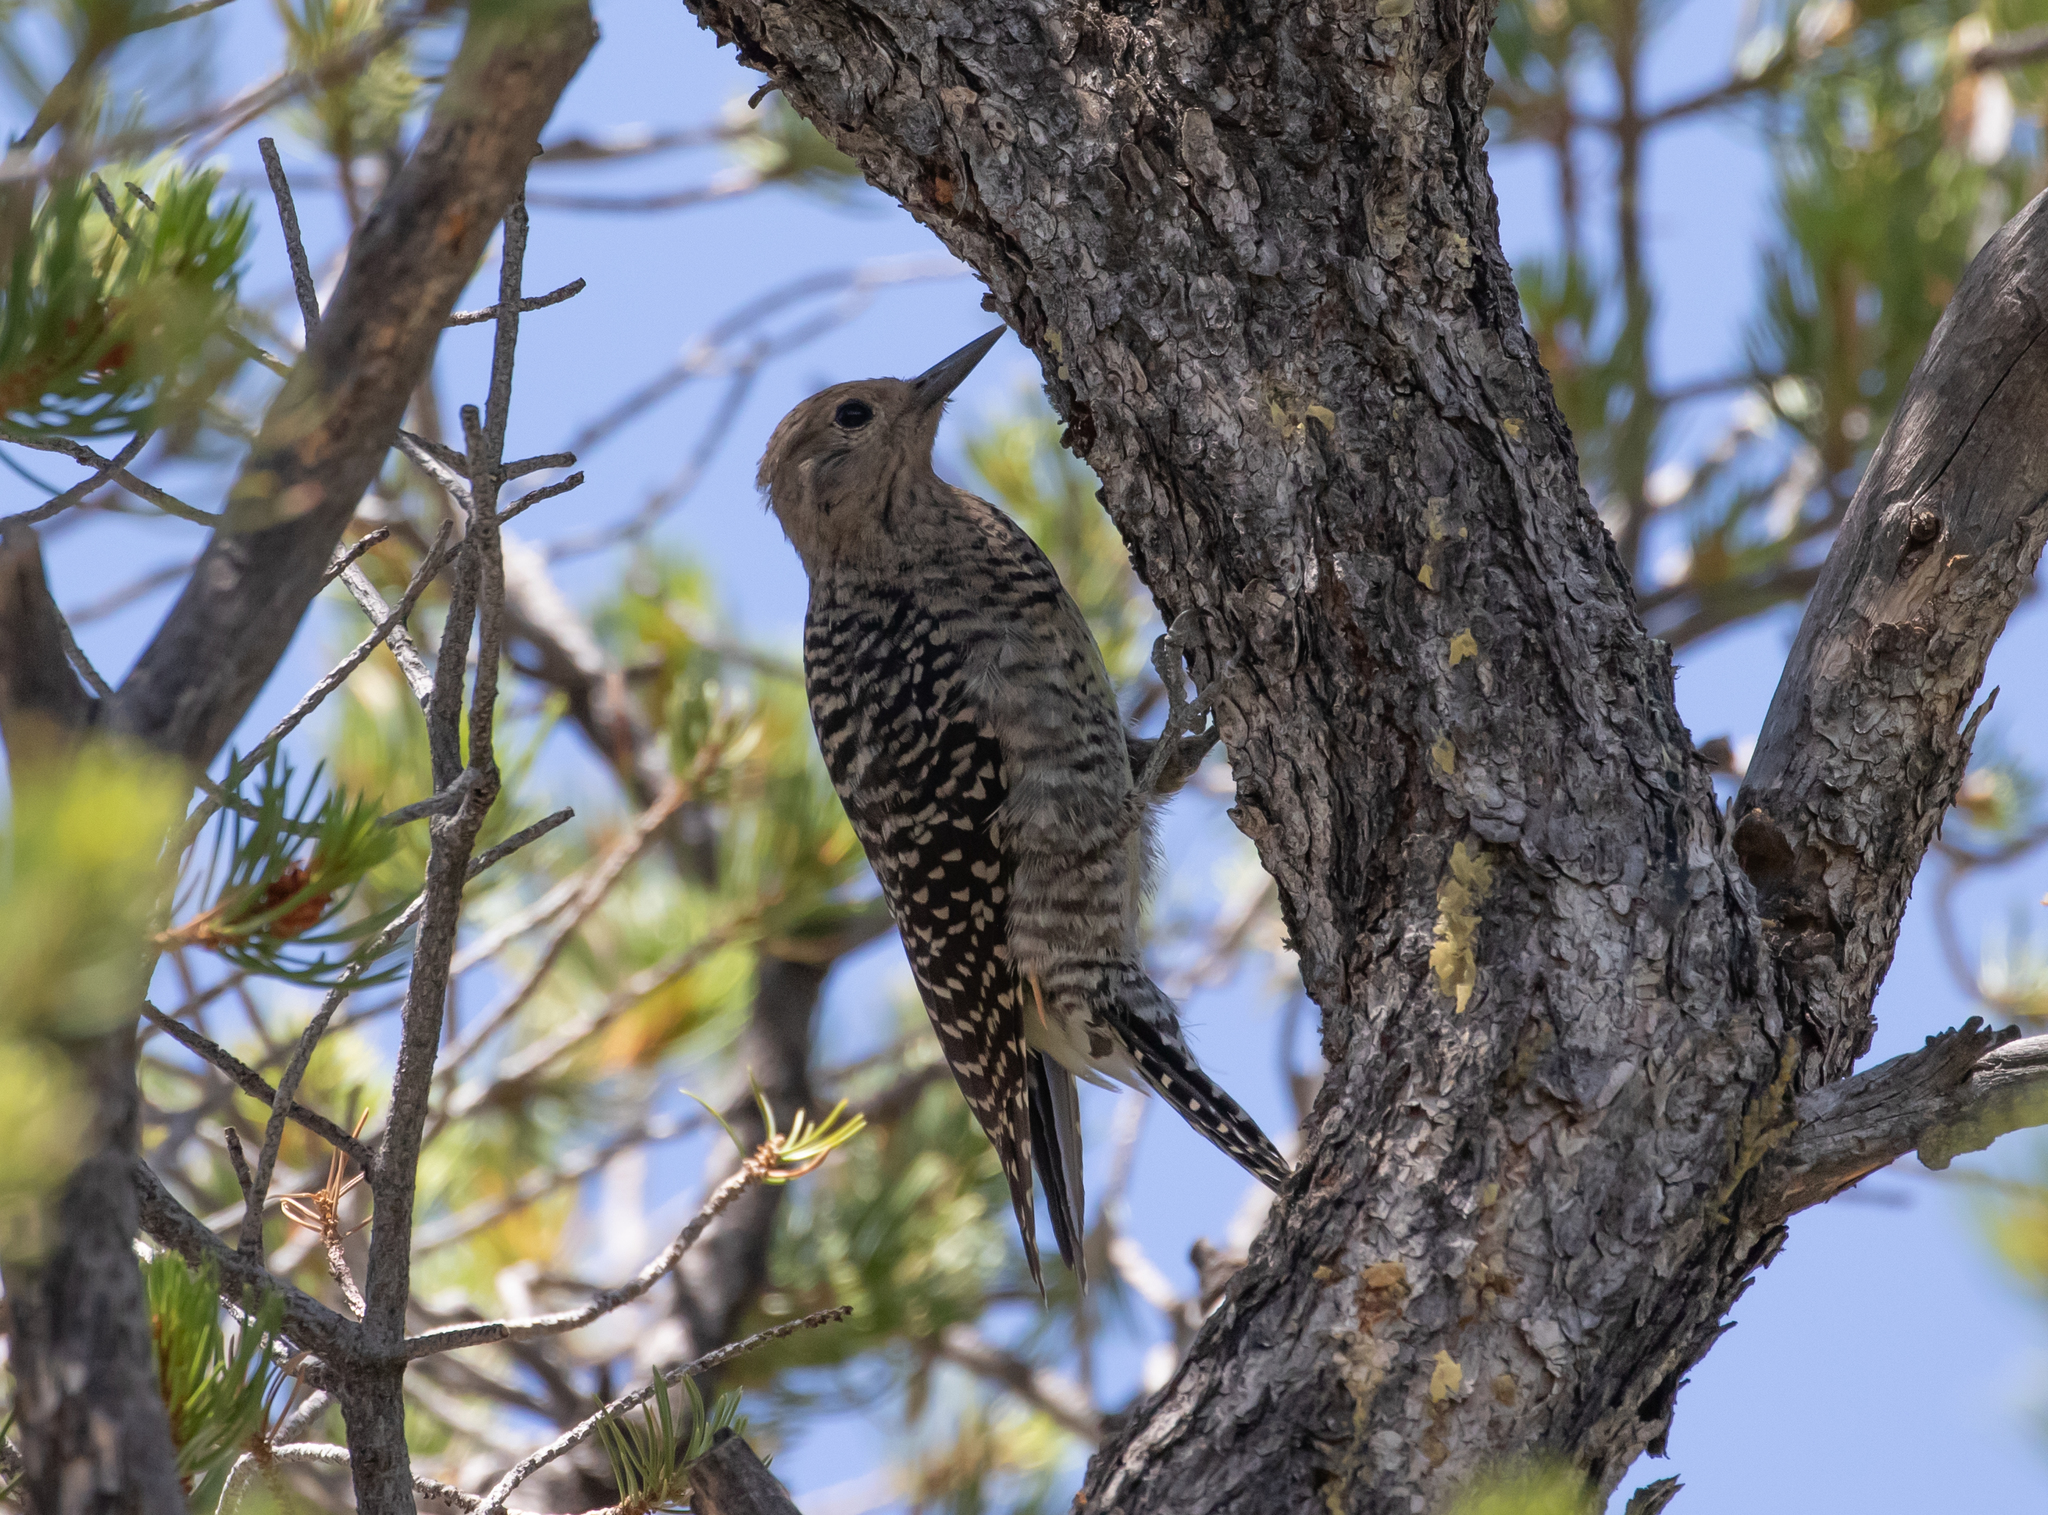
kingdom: Animalia
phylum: Chordata
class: Aves
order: Piciformes
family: Picidae
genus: Sphyrapicus
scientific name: Sphyrapicus thyroideus
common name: Williamson's sapsucker
